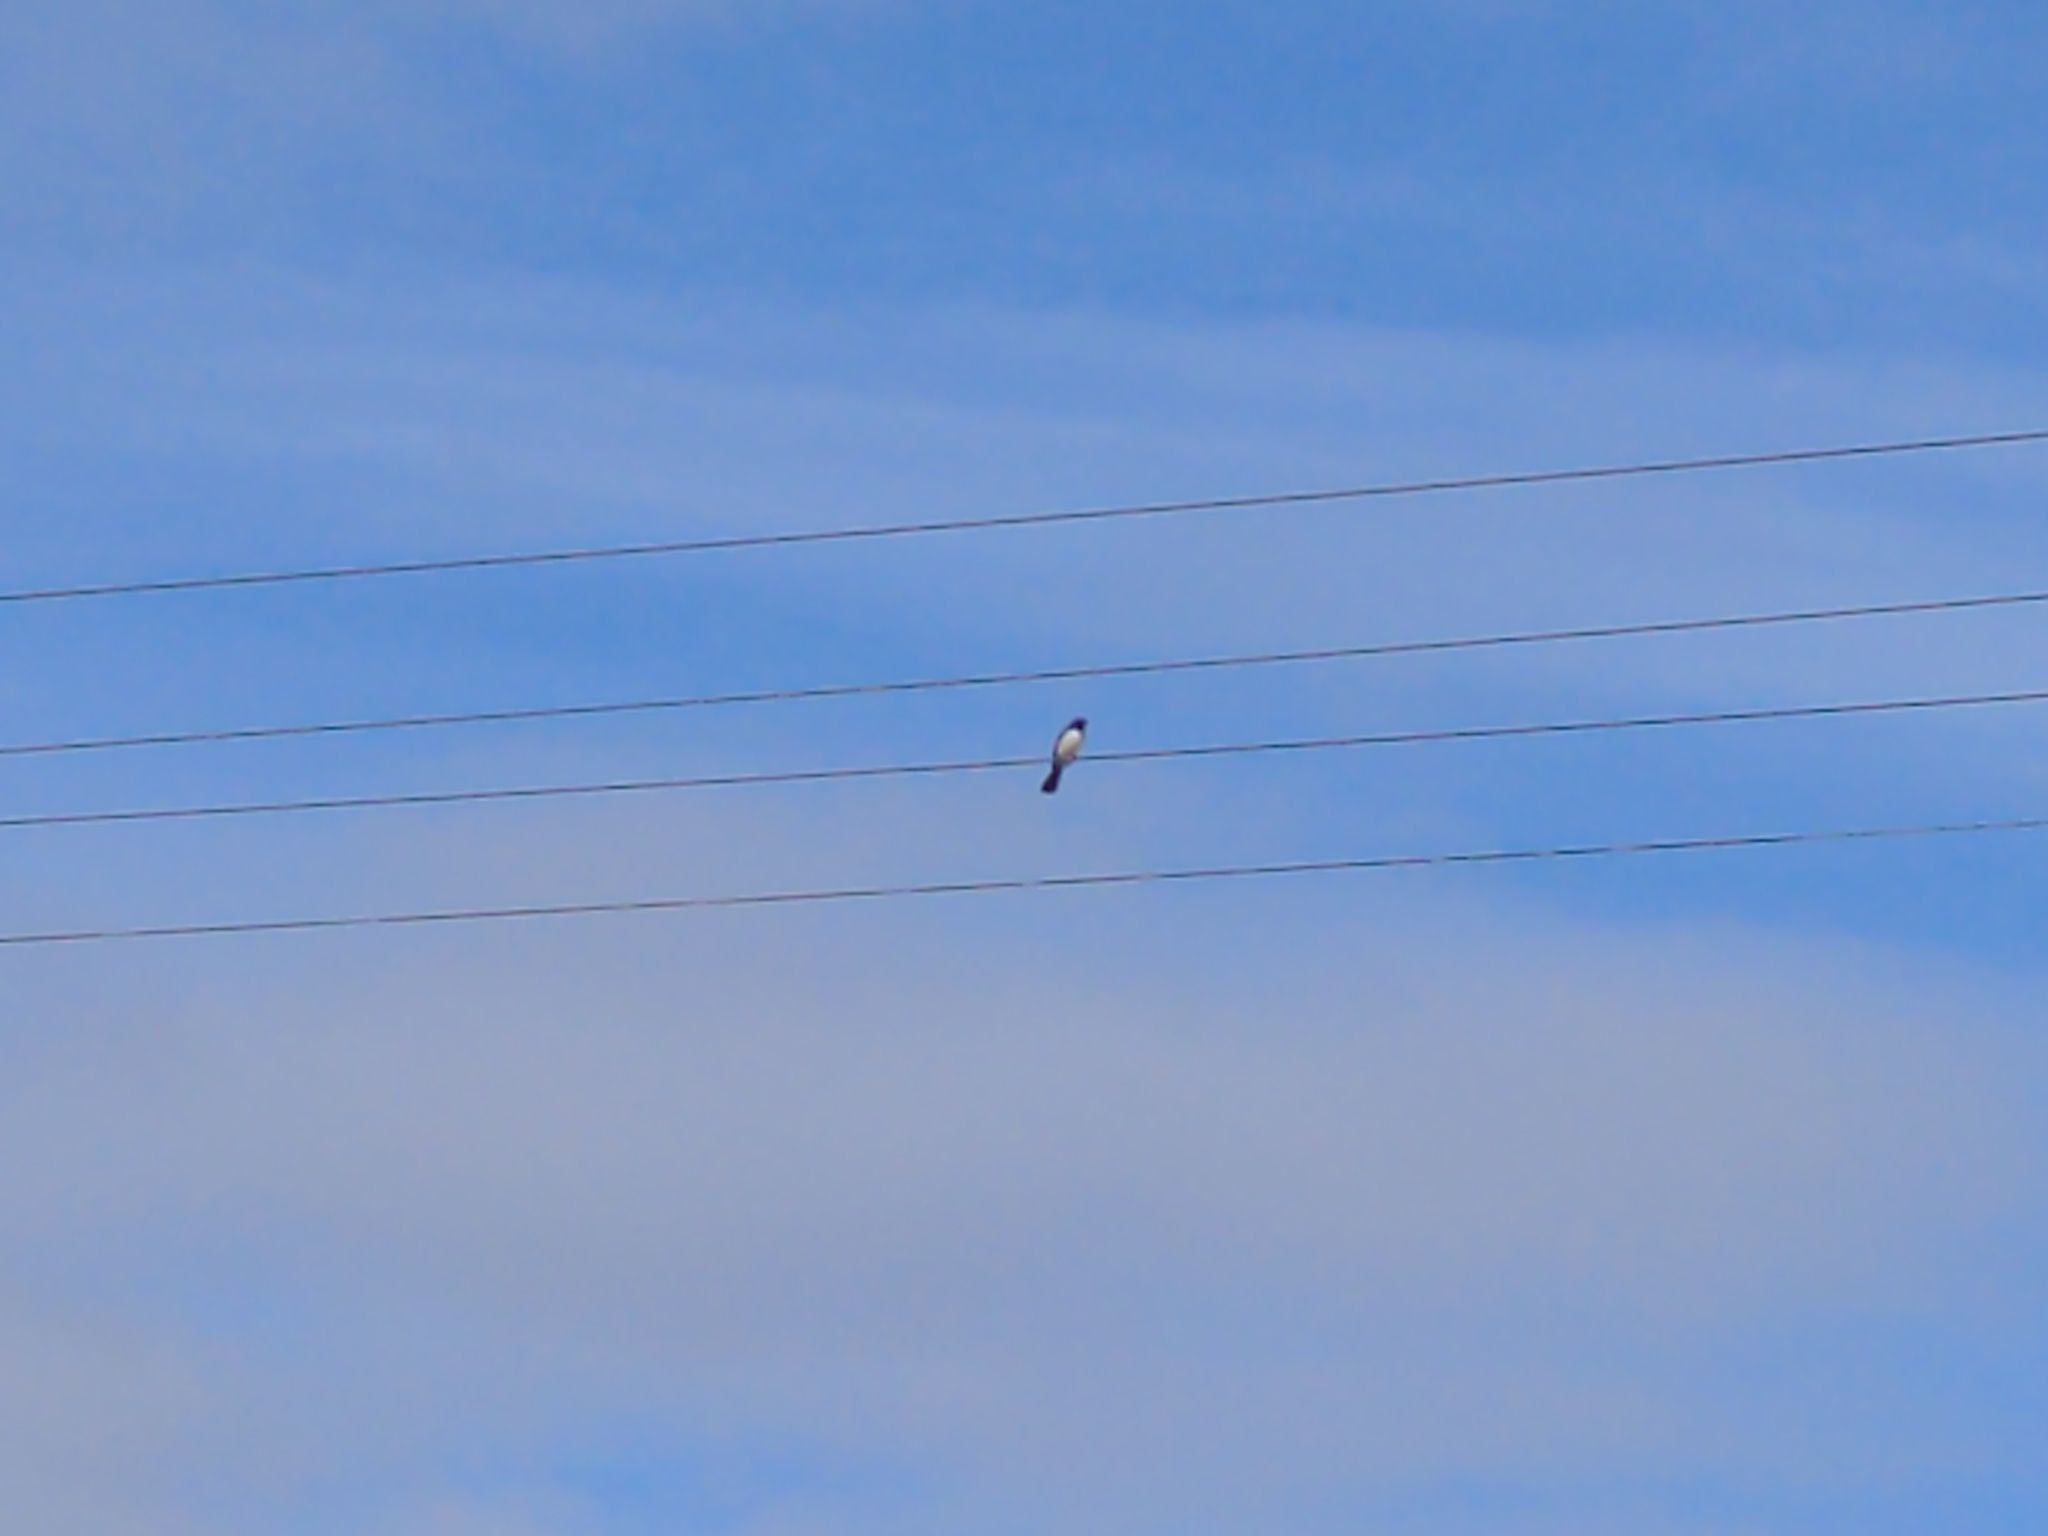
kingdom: Animalia
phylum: Chordata
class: Aves
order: Passeriformes
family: Rhipiduridae
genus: Rhipidura
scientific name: Rhipidura leucophrys
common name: Willie wagtail
